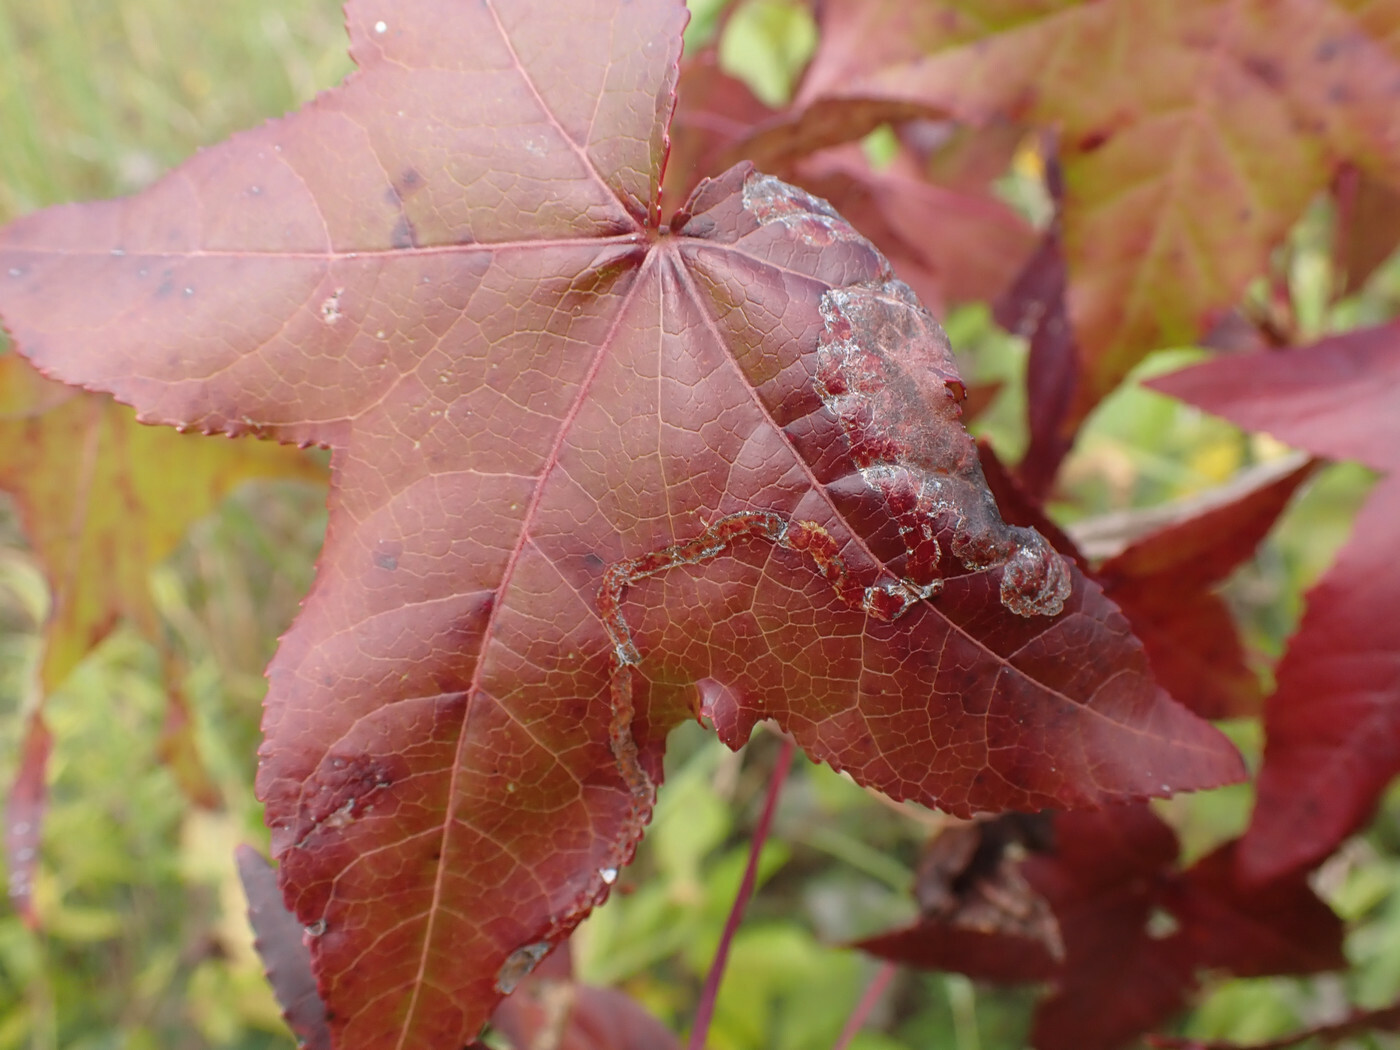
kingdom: Animalia
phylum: Arthropoda
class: Insecta
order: Lepidoptera
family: Gracillariidae
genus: Phyllocnistis
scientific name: Phyllocnistis liquidambarisella
